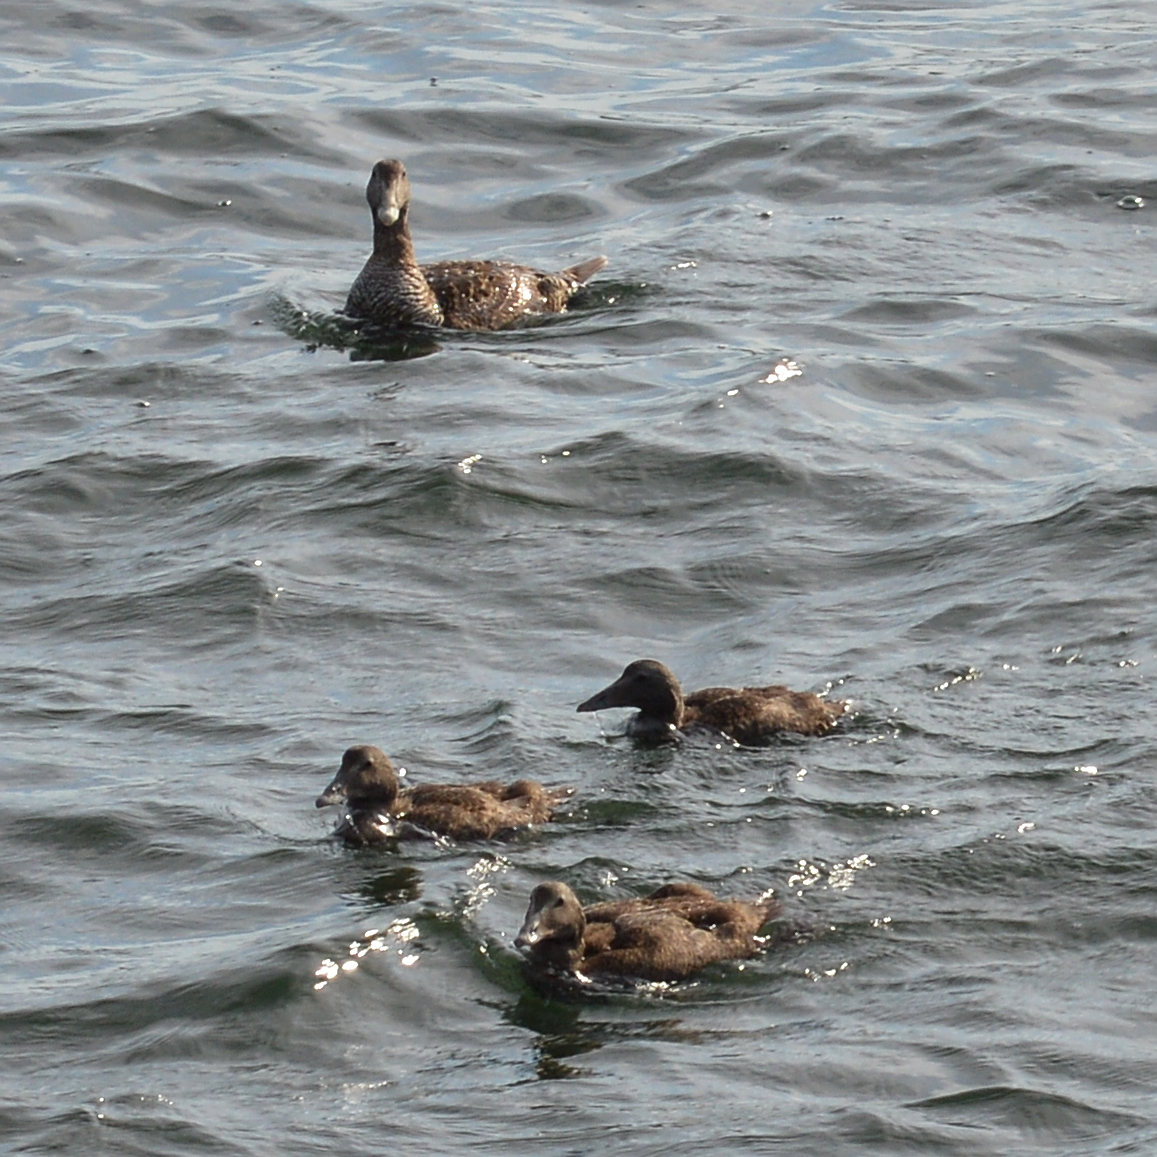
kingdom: Animalia
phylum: Chordata
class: Aves
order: Anseriformes
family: Anatidae
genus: Somateria
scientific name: Somateria mollissima
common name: Common eider
